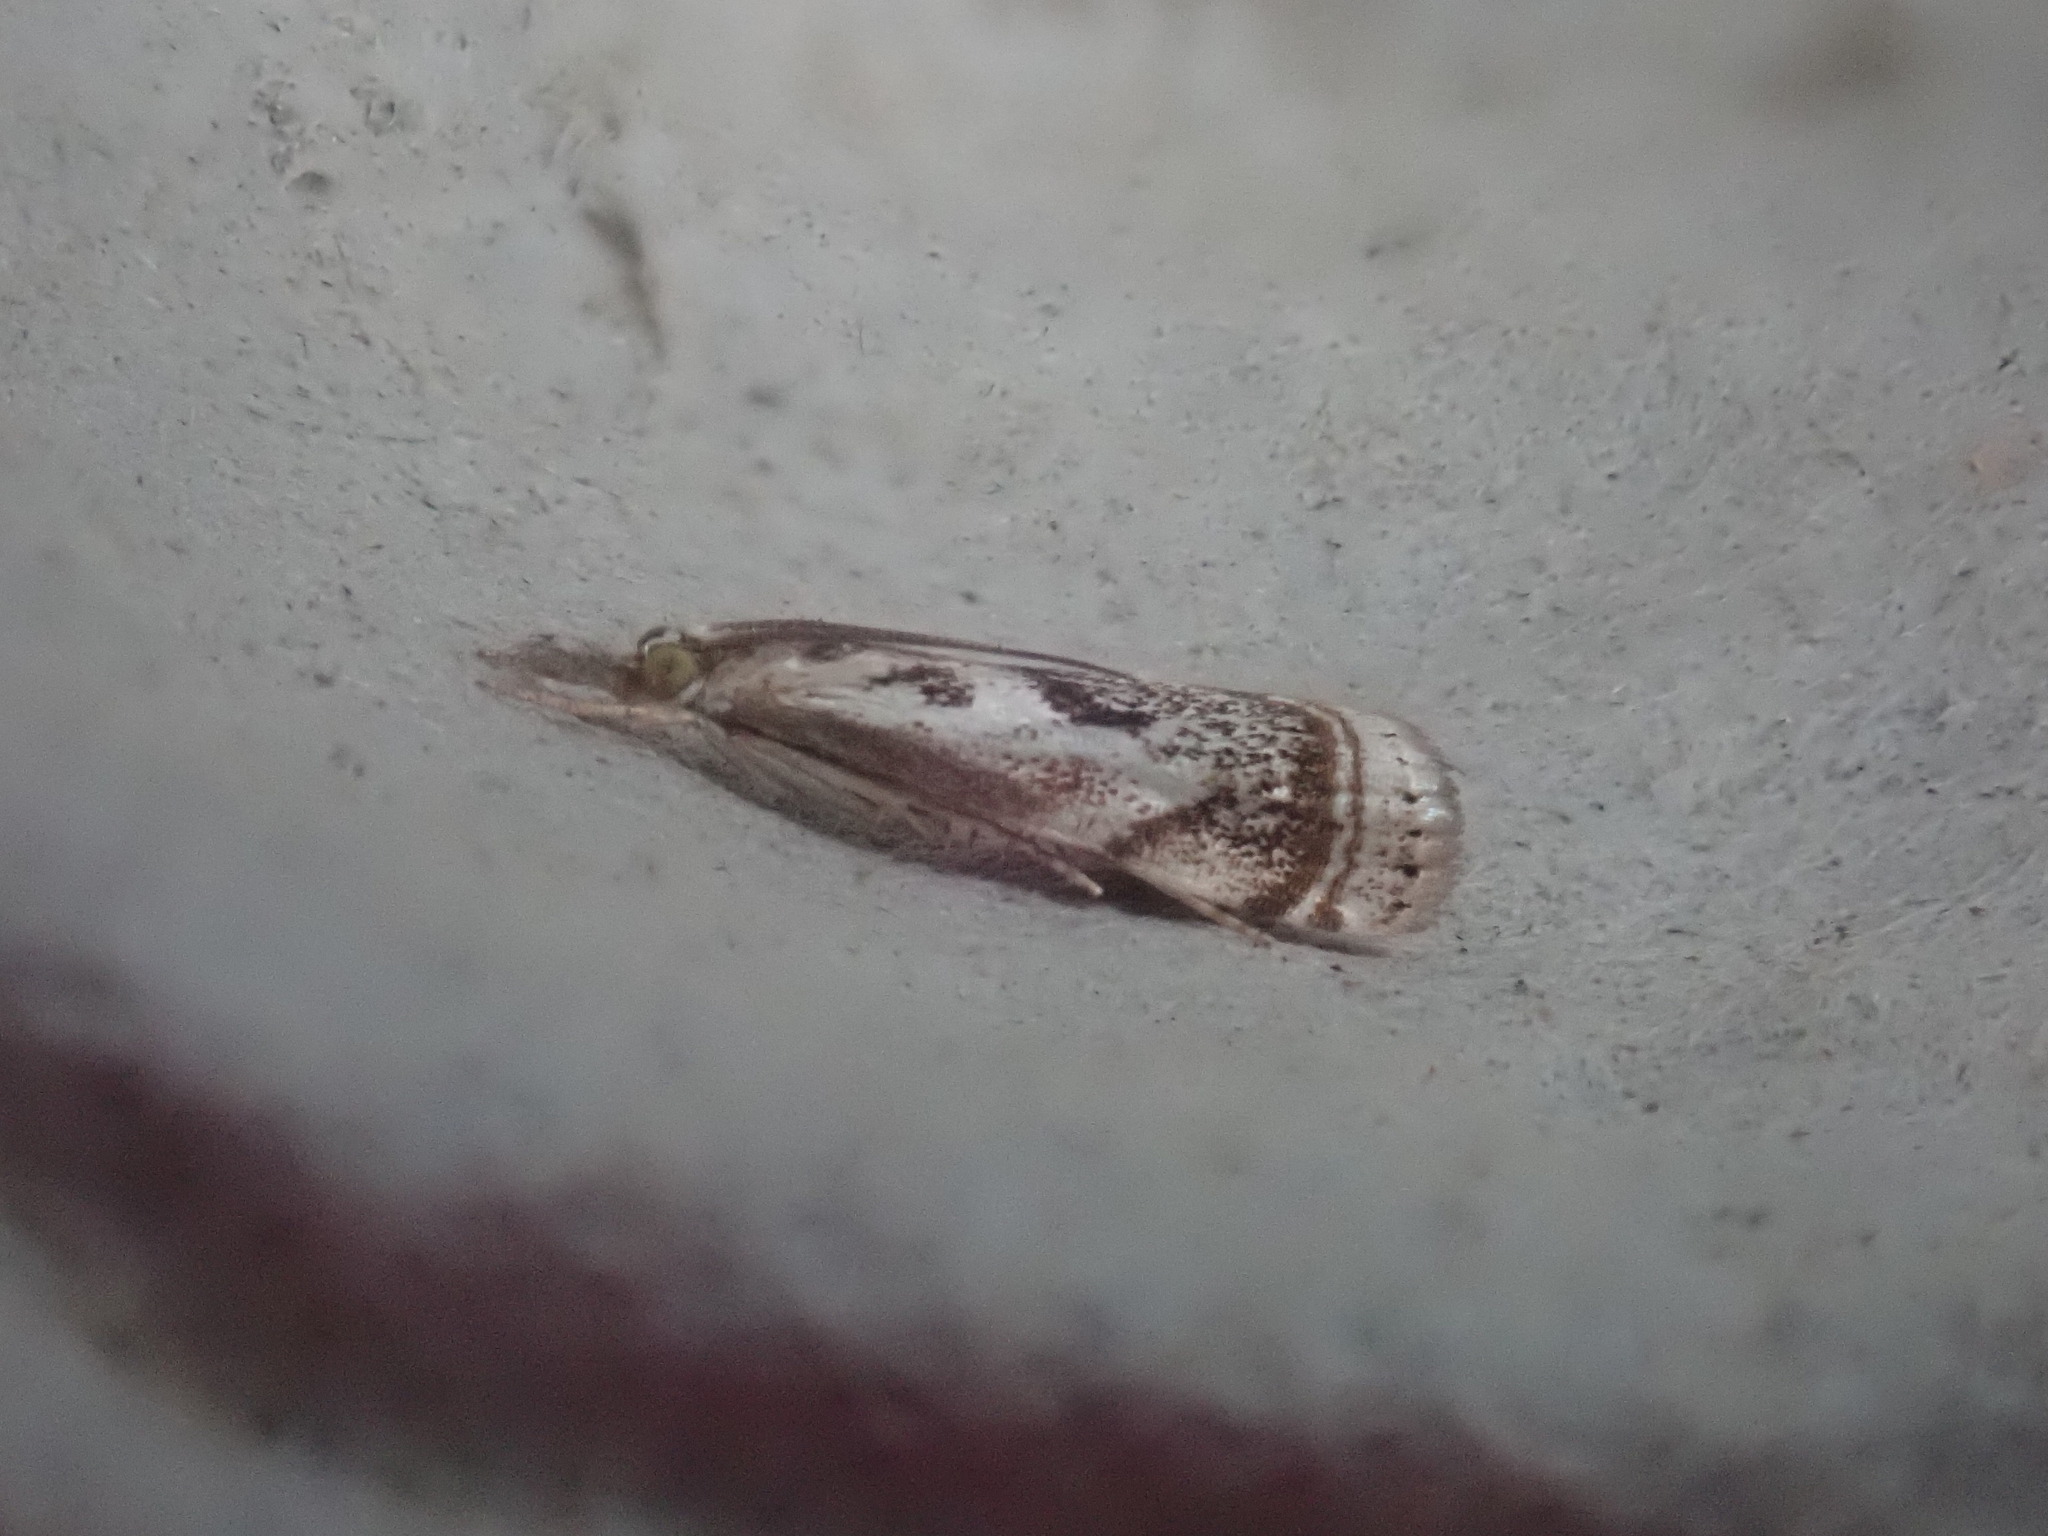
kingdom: Animalia
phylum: Arthropoda
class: Insecta
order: Lepidoptera
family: Crambidae
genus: Microcrambus
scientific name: Microcrambus elegans
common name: Elegant grass-veneer
